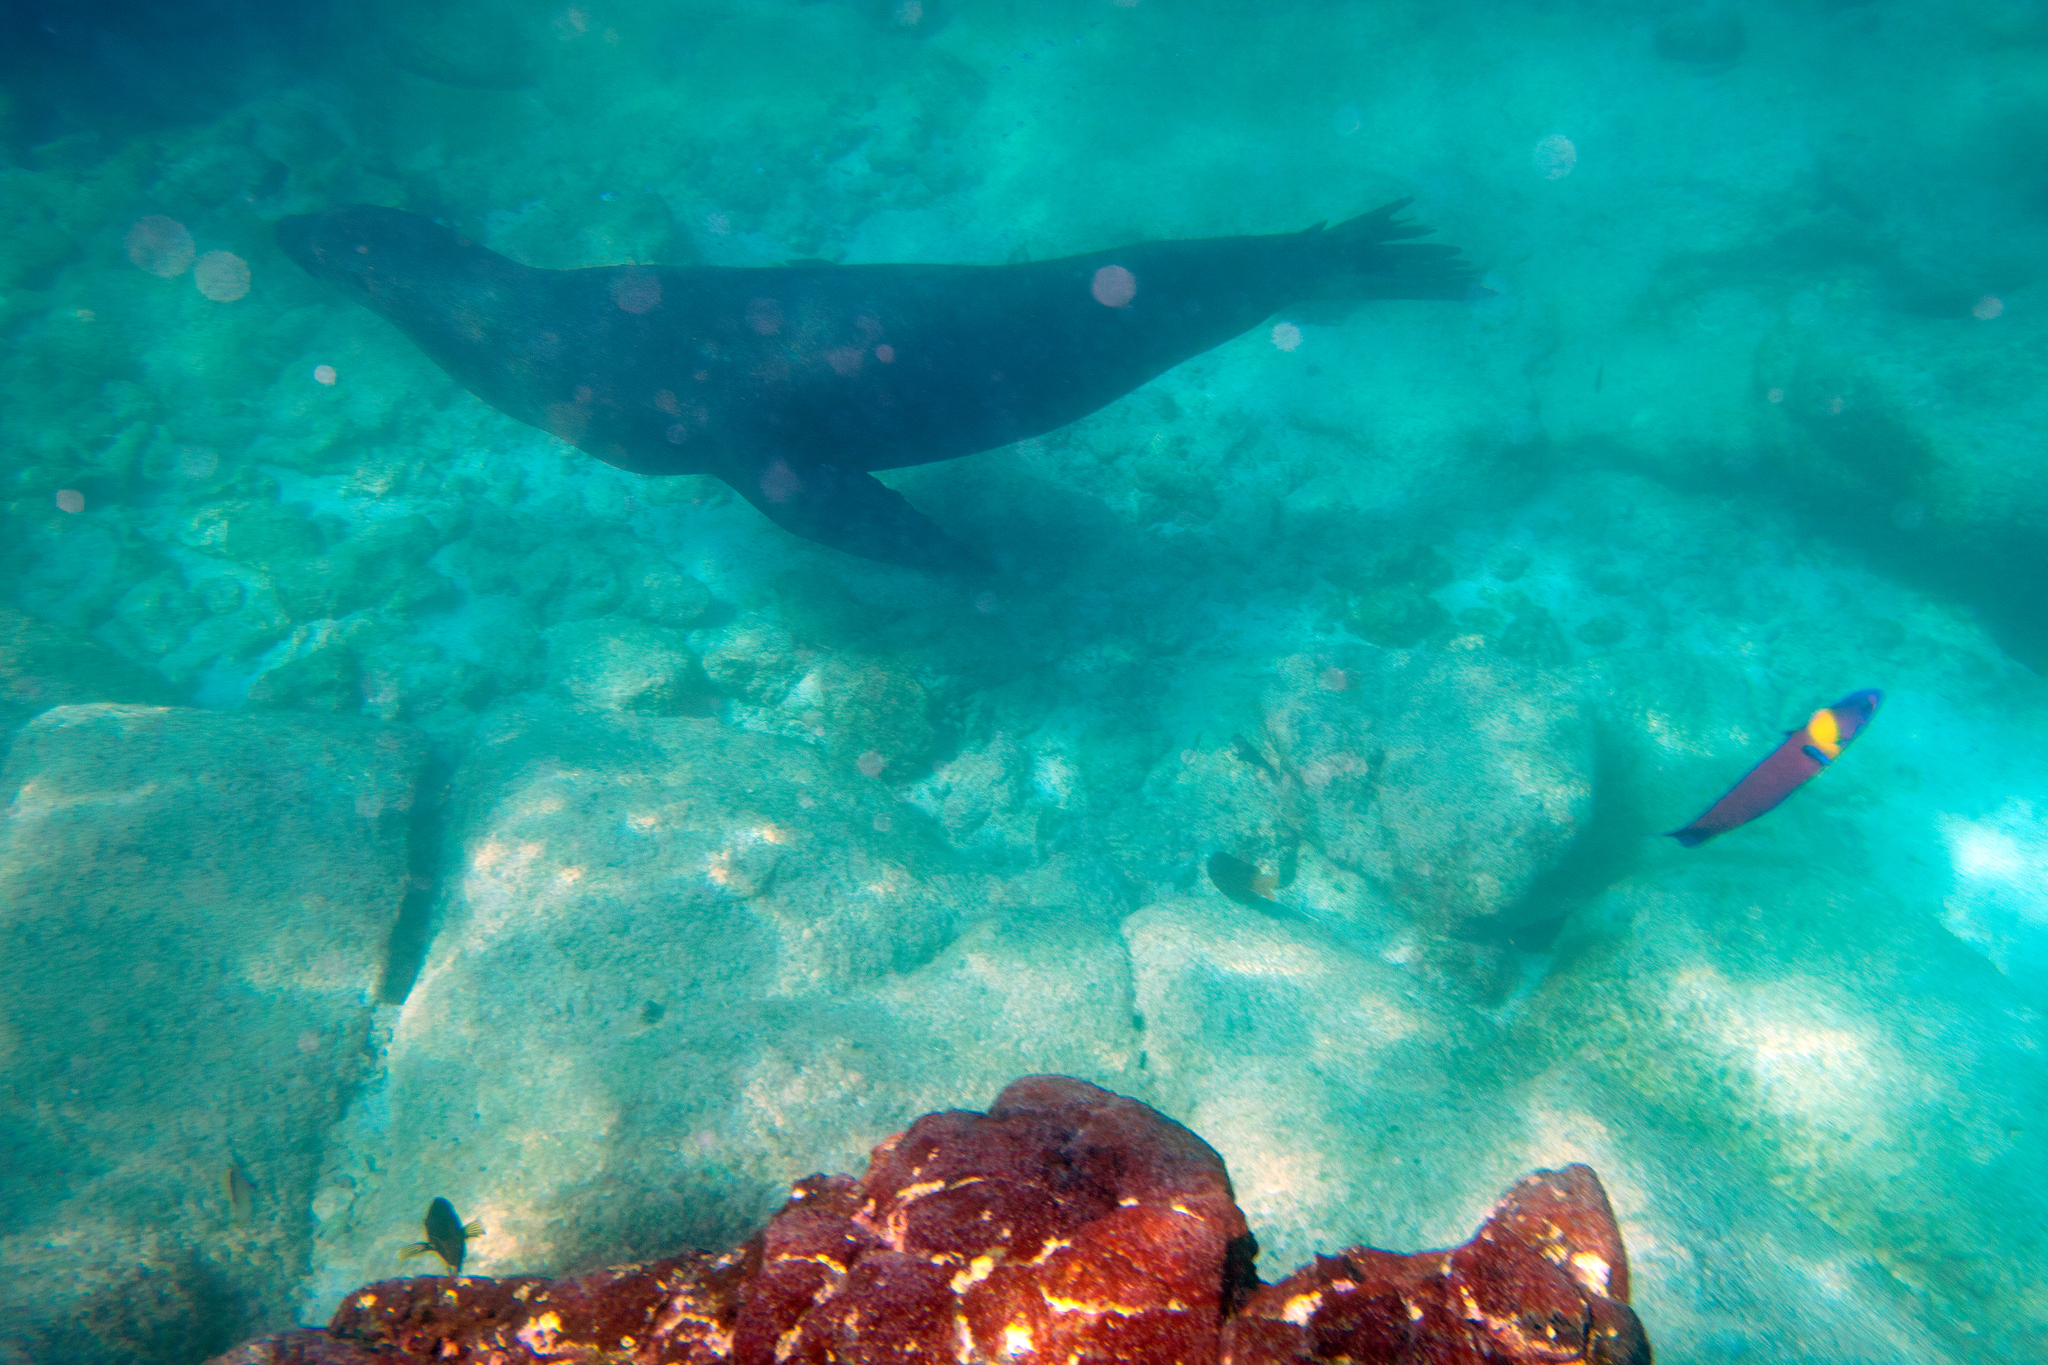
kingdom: Animalia
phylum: Chordata
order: Perciformes
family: Labridae
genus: Thalassoma
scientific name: Thalassoma lucasanum
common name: Cortez rainbow wrasse
